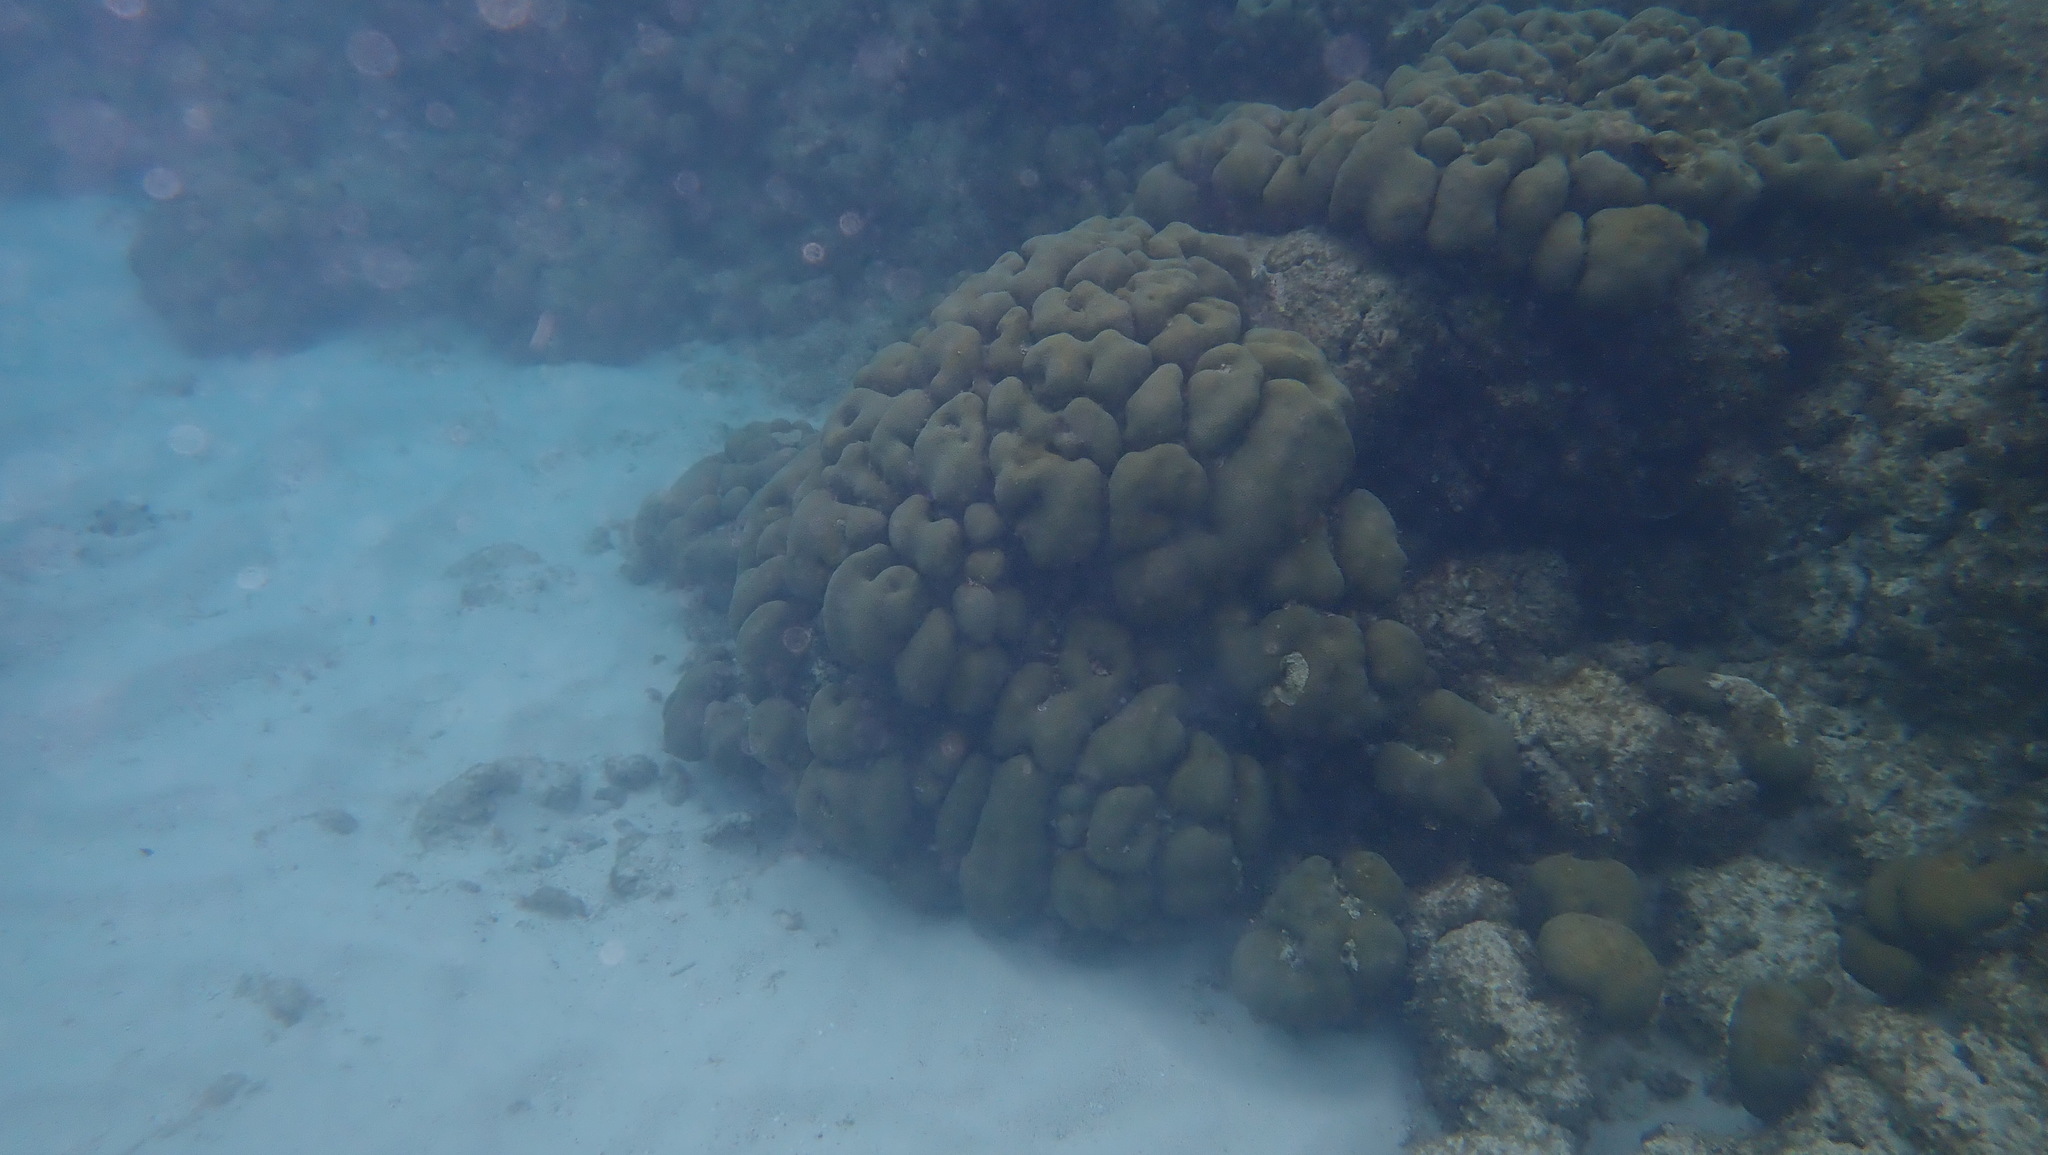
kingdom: Animalia
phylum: Cnidaria
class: Anthozoa
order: Scleractinia
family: Merulinidae
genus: Orbicella
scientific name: Orbicella annularis
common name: Boulder star coral
